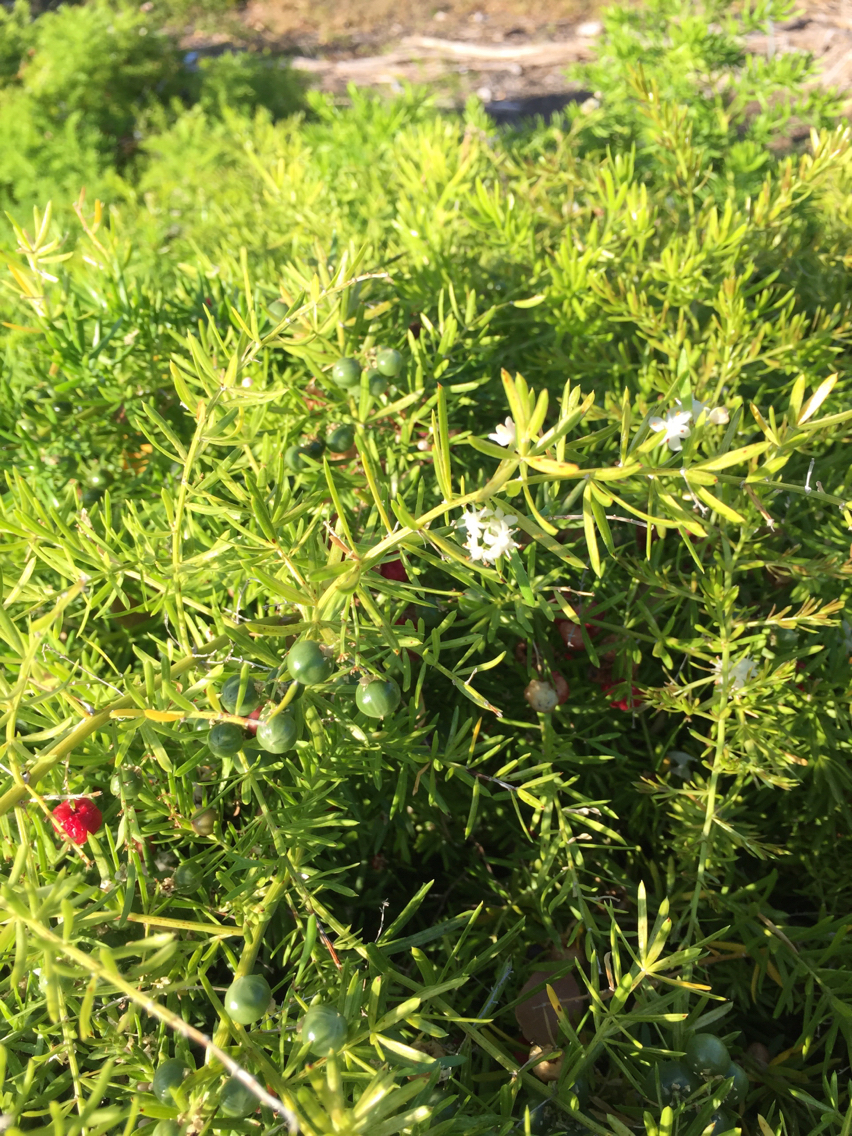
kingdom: Plantae
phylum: Tracheophyta
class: Liliopsida
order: Asparagales
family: Asparagaceae
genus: Asparagus
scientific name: Asparagus aethiopicus
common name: Sprenger's asparagus fern
